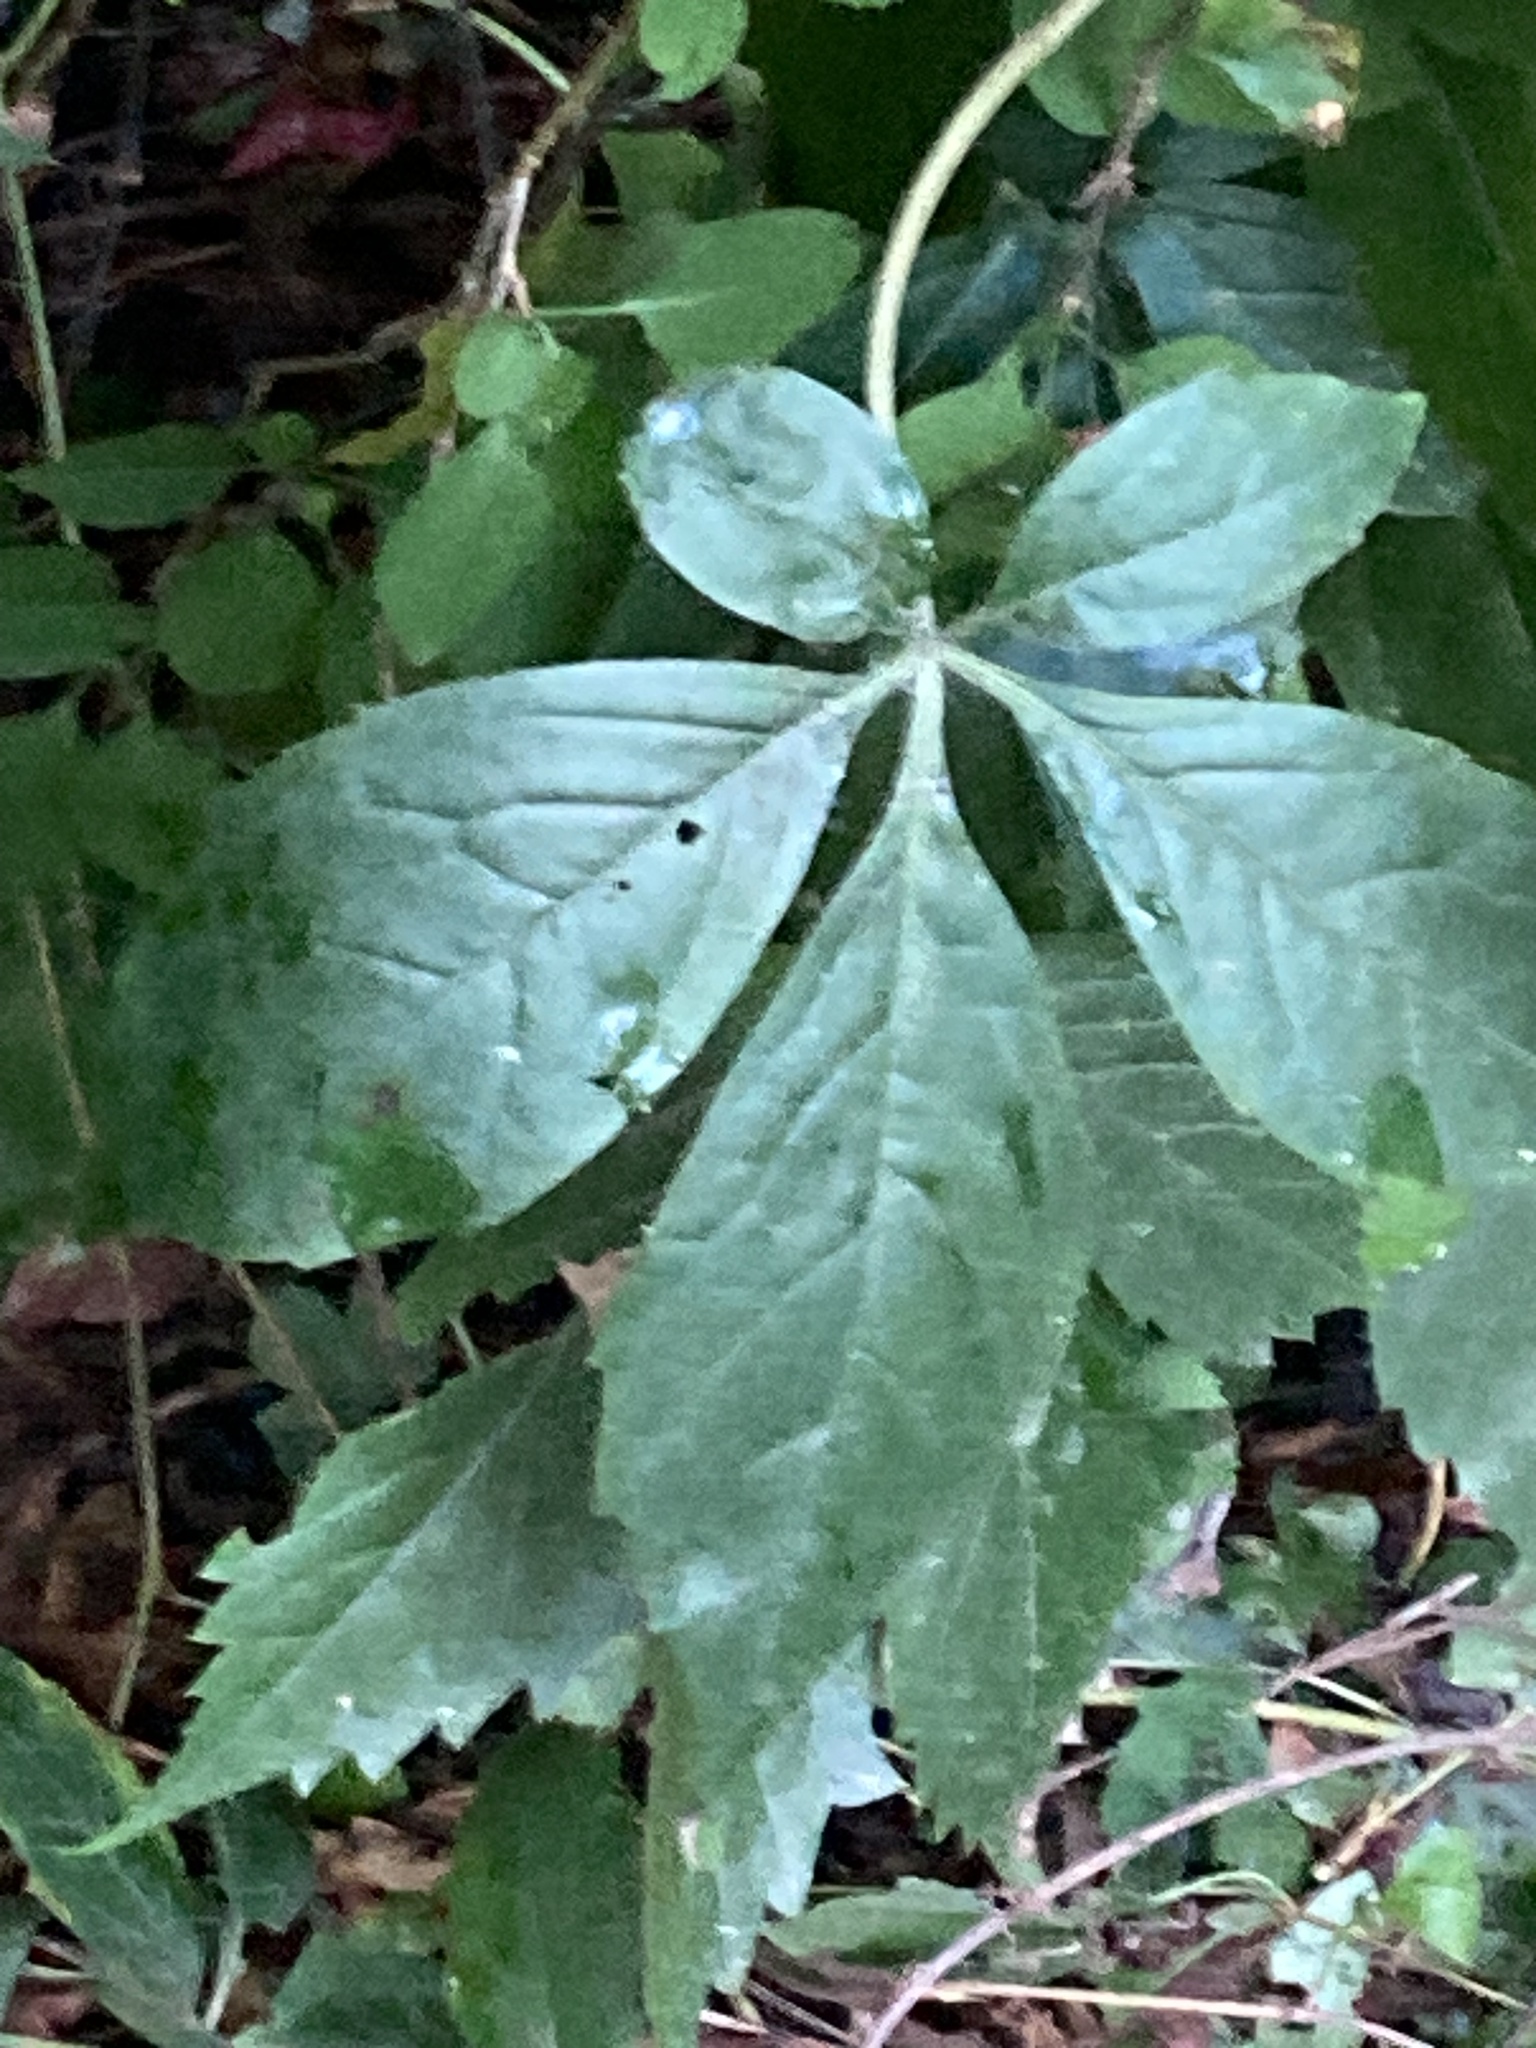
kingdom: Plantae
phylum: Tracheophyta
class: Magnoliopsida
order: Vitales
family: Vitaceae
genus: Parthenocissus
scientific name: Parthenocissus quinquefolia
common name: Virginia-creeper
